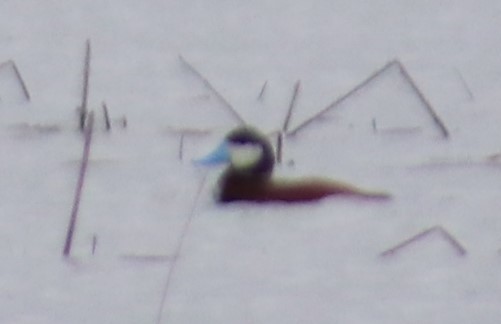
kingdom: Animalia
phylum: Chordata
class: Aves
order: Anseriformes
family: Anatidae
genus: Oxyura
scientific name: Oxyura jamaicensis
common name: Ruddy duck
